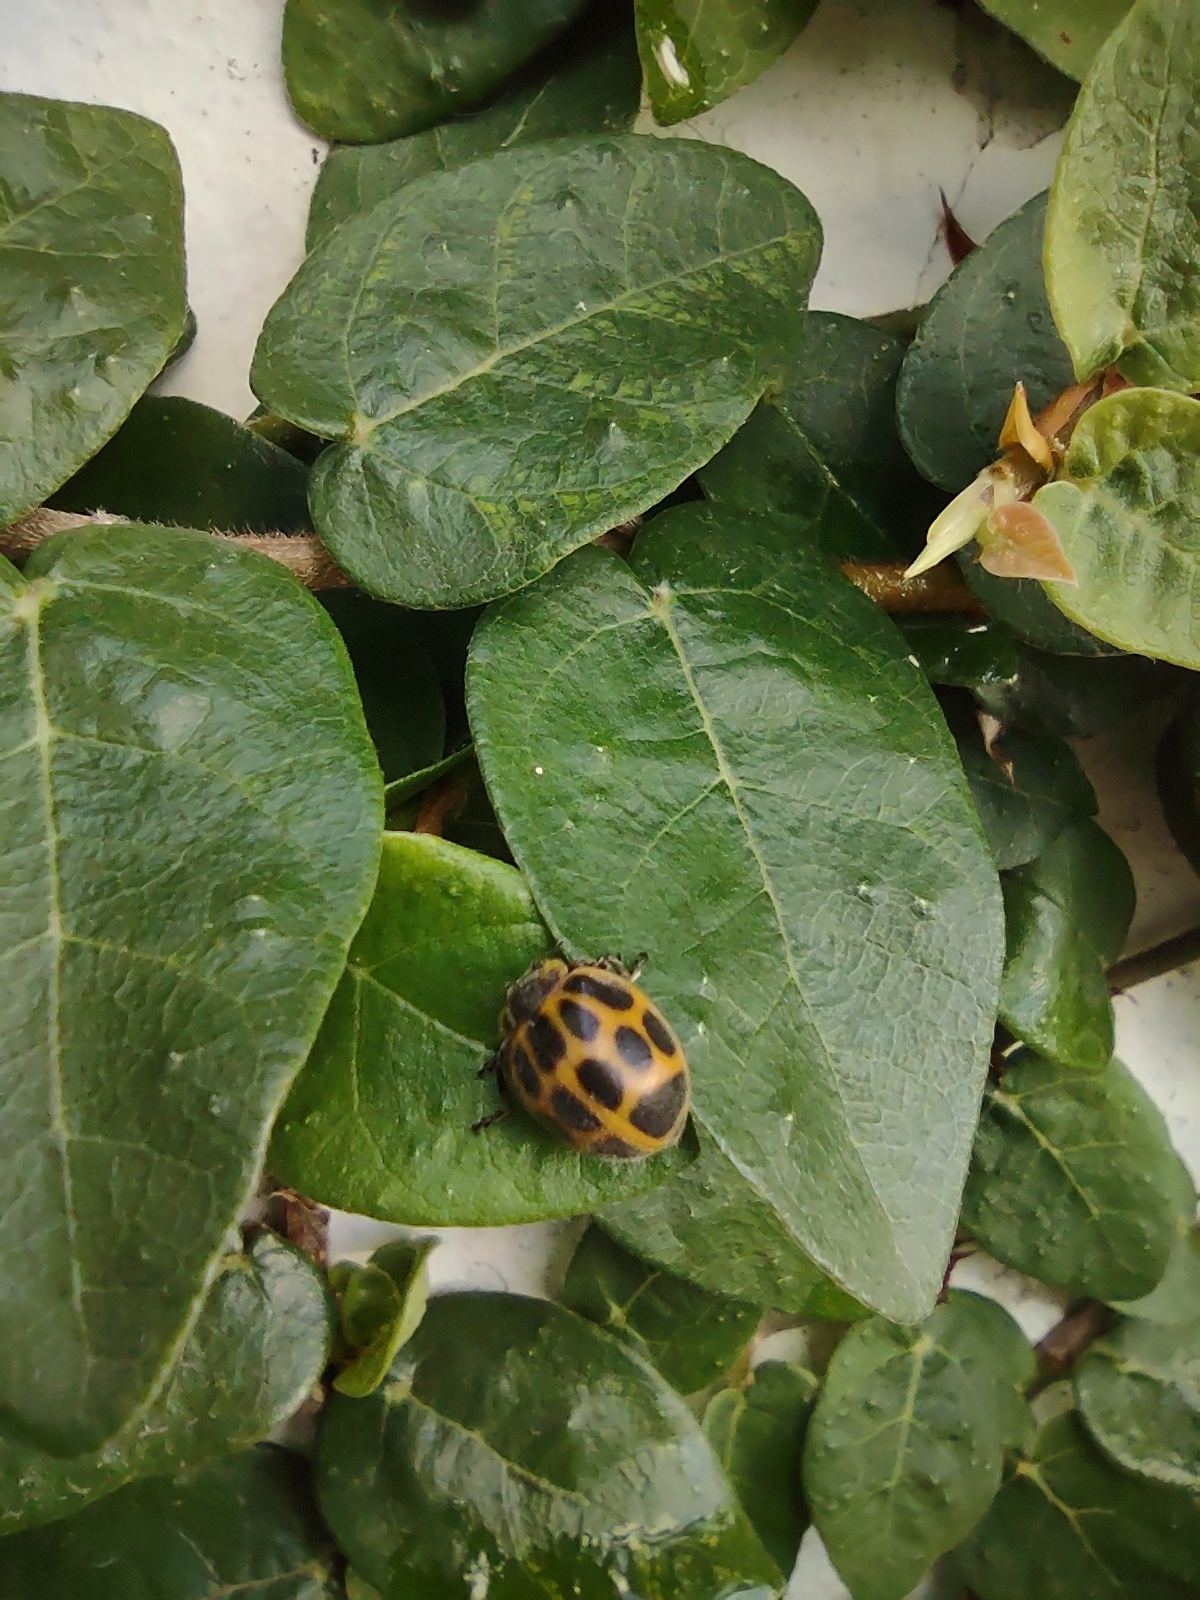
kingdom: Animalia
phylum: Arthropoda
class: Insecta
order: Coleoptera
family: Coccinellidae
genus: Epilachna
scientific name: Epilachna
